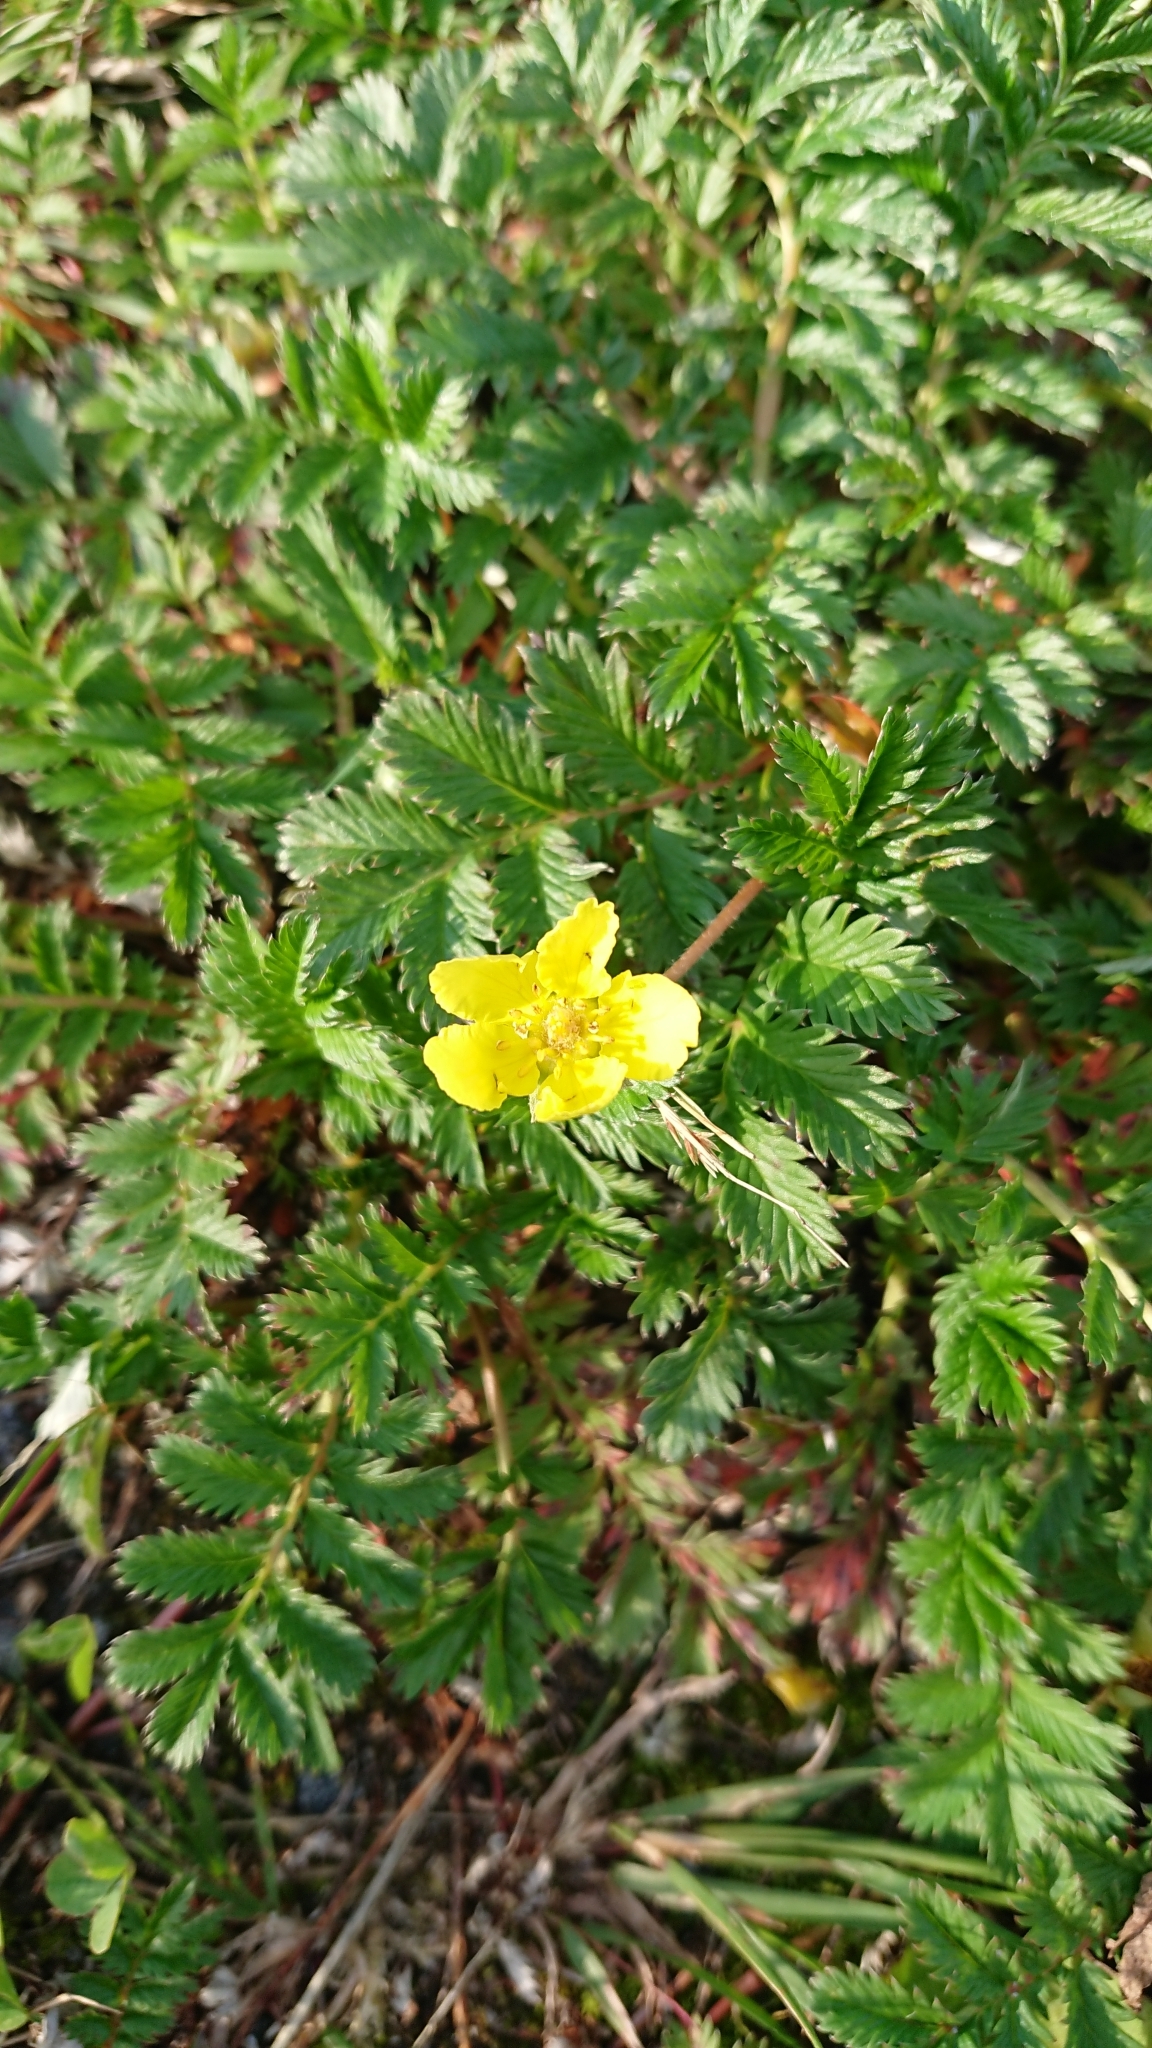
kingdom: Plantae
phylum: Tracheophyta
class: Magnoliopsida
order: Rosales
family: Rosaceae
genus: Argentina
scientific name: Argentina anserina
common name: Common silverweed
